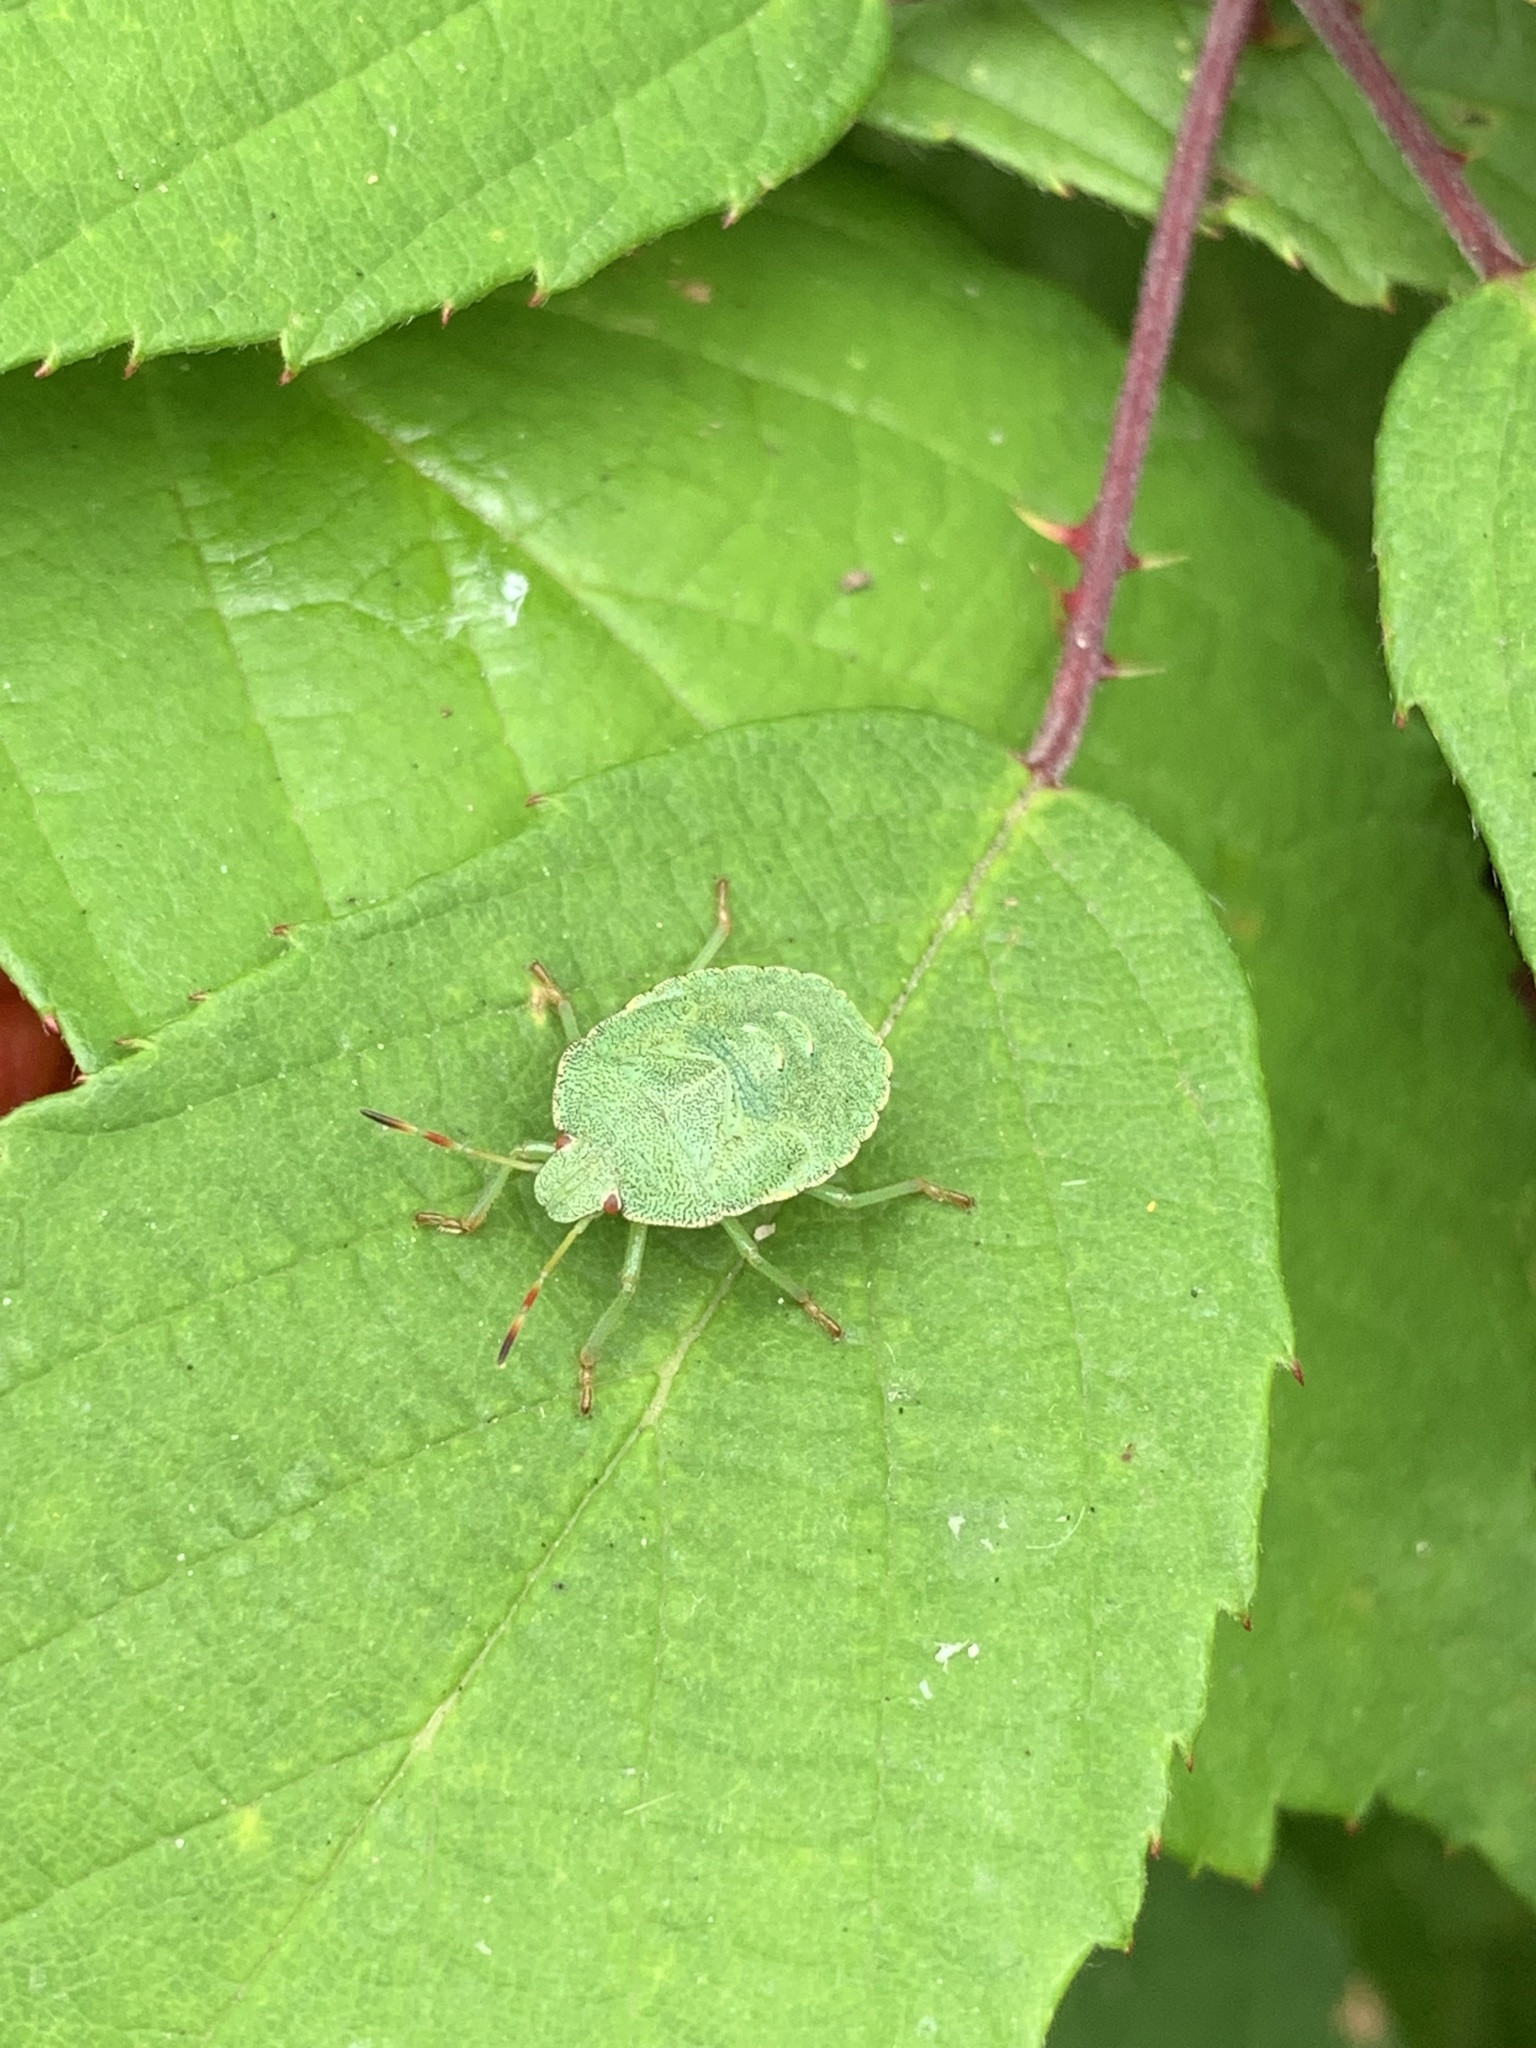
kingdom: Animalia
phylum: Arthropoda
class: Insecta
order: Hemiptera
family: Pentatomidae
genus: Palomena
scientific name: Palomena prasina
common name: Green shieldbug
